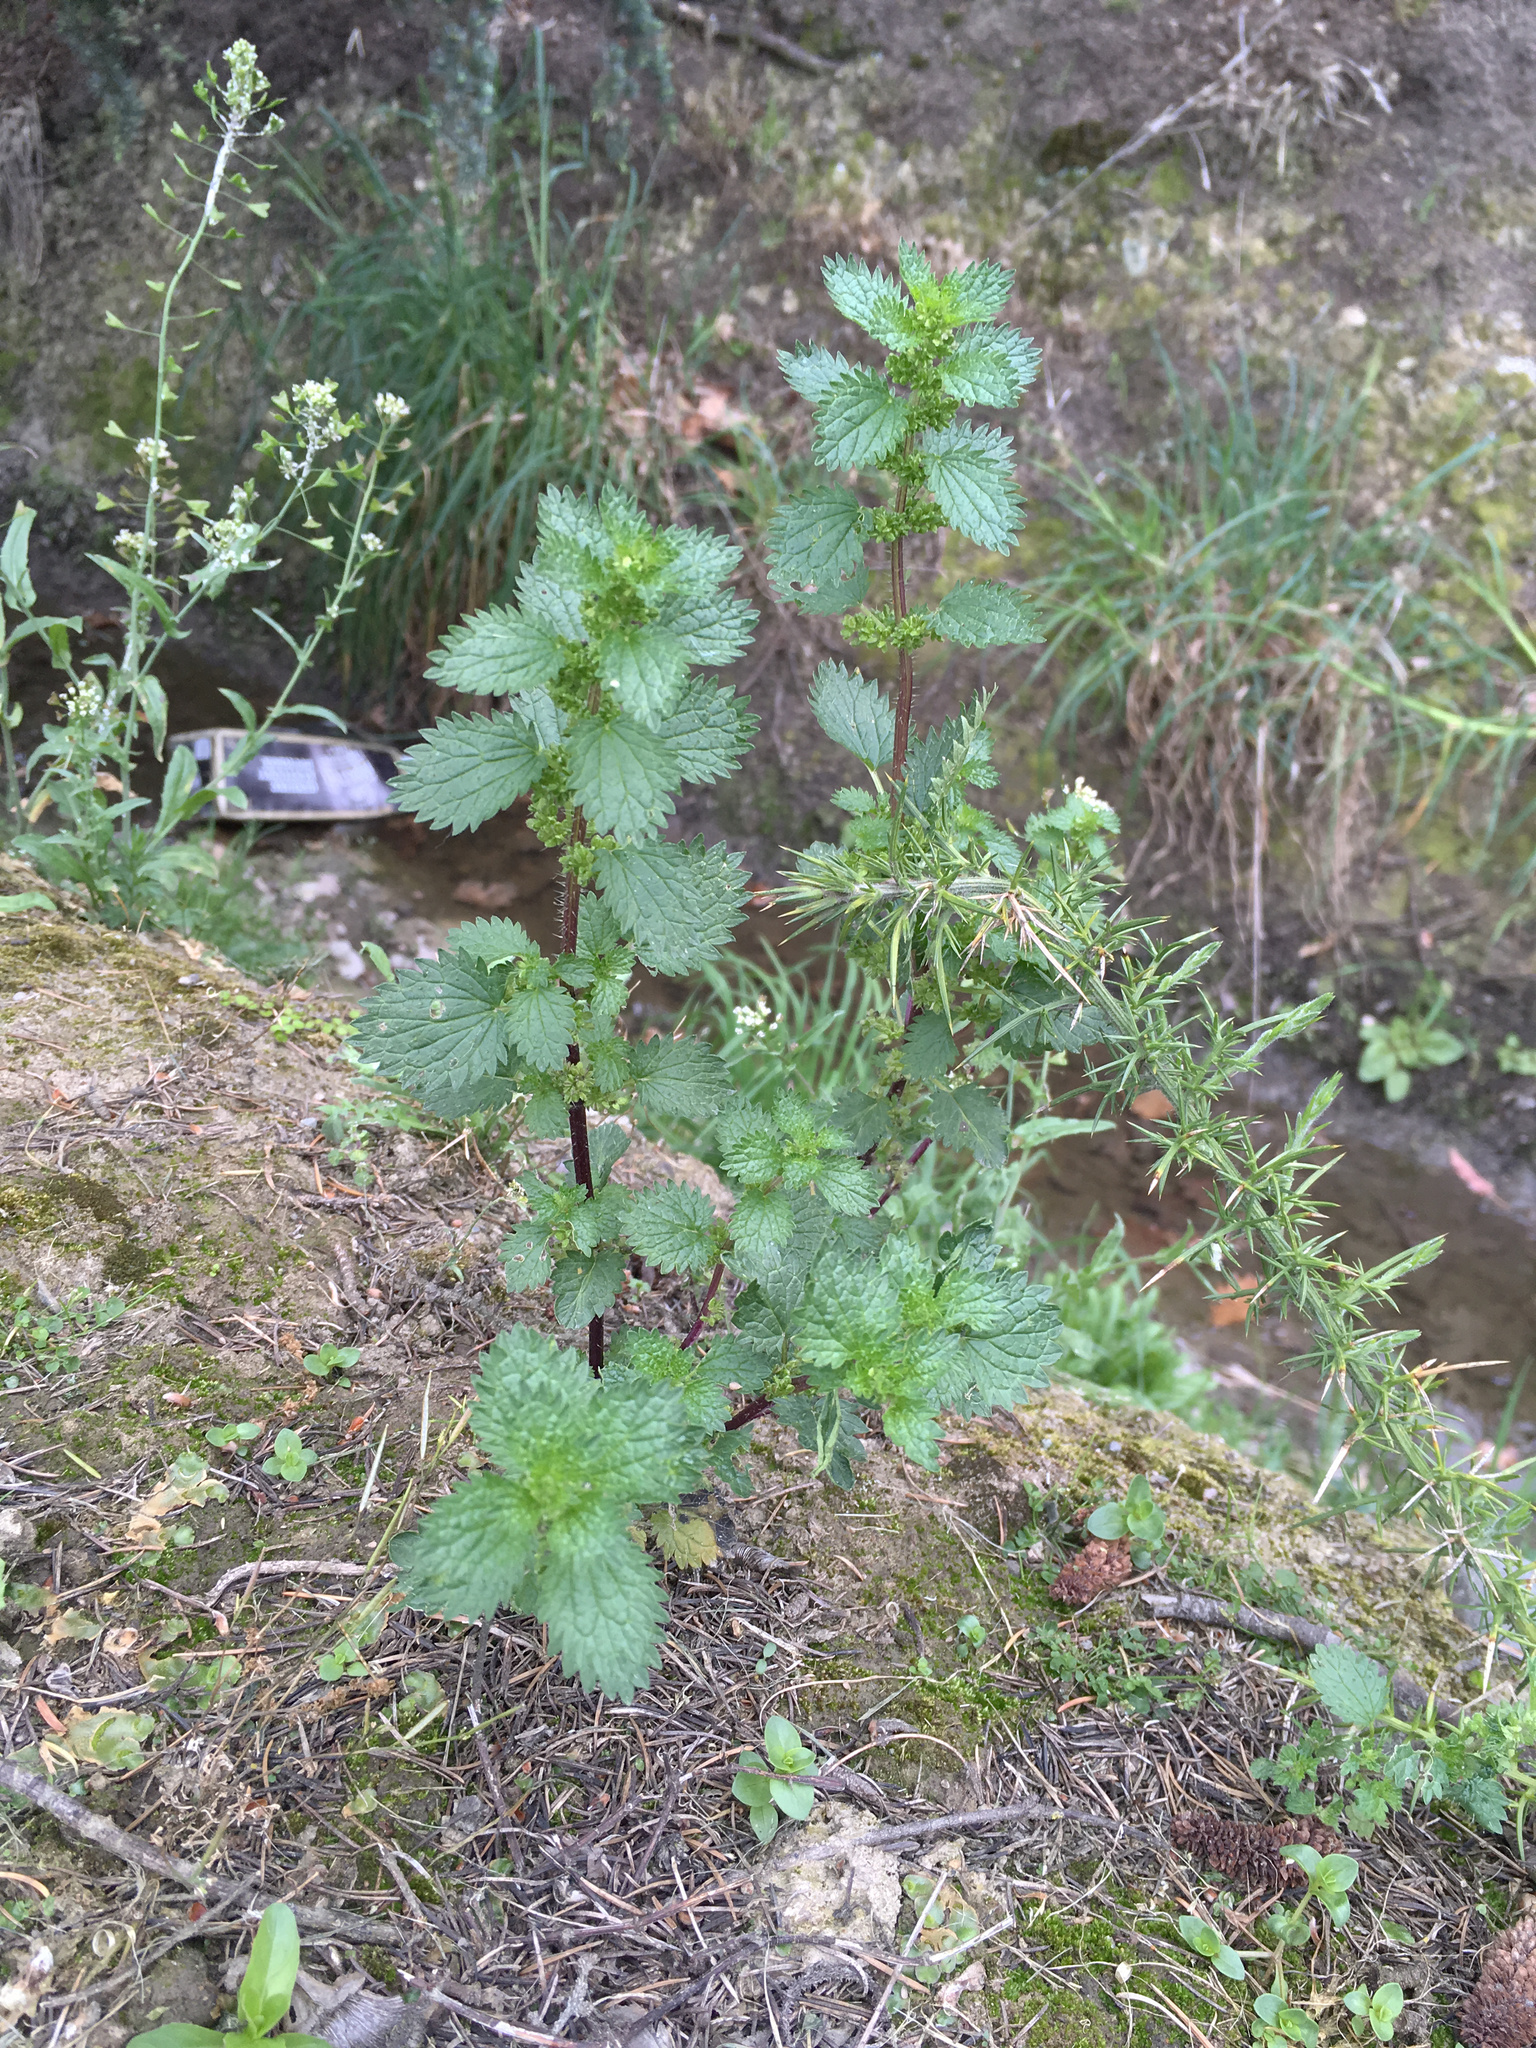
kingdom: Plantae
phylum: Tracheophyta
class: Magnoliopsida
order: Rosales
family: Urticaceae
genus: Urtica
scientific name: Urtica urens
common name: Dwarf nettle
